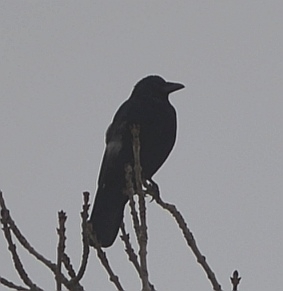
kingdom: Animalia
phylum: Chordata
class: Aves
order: Passeriformes
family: Corvidae
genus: Corvus
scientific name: Corvus
